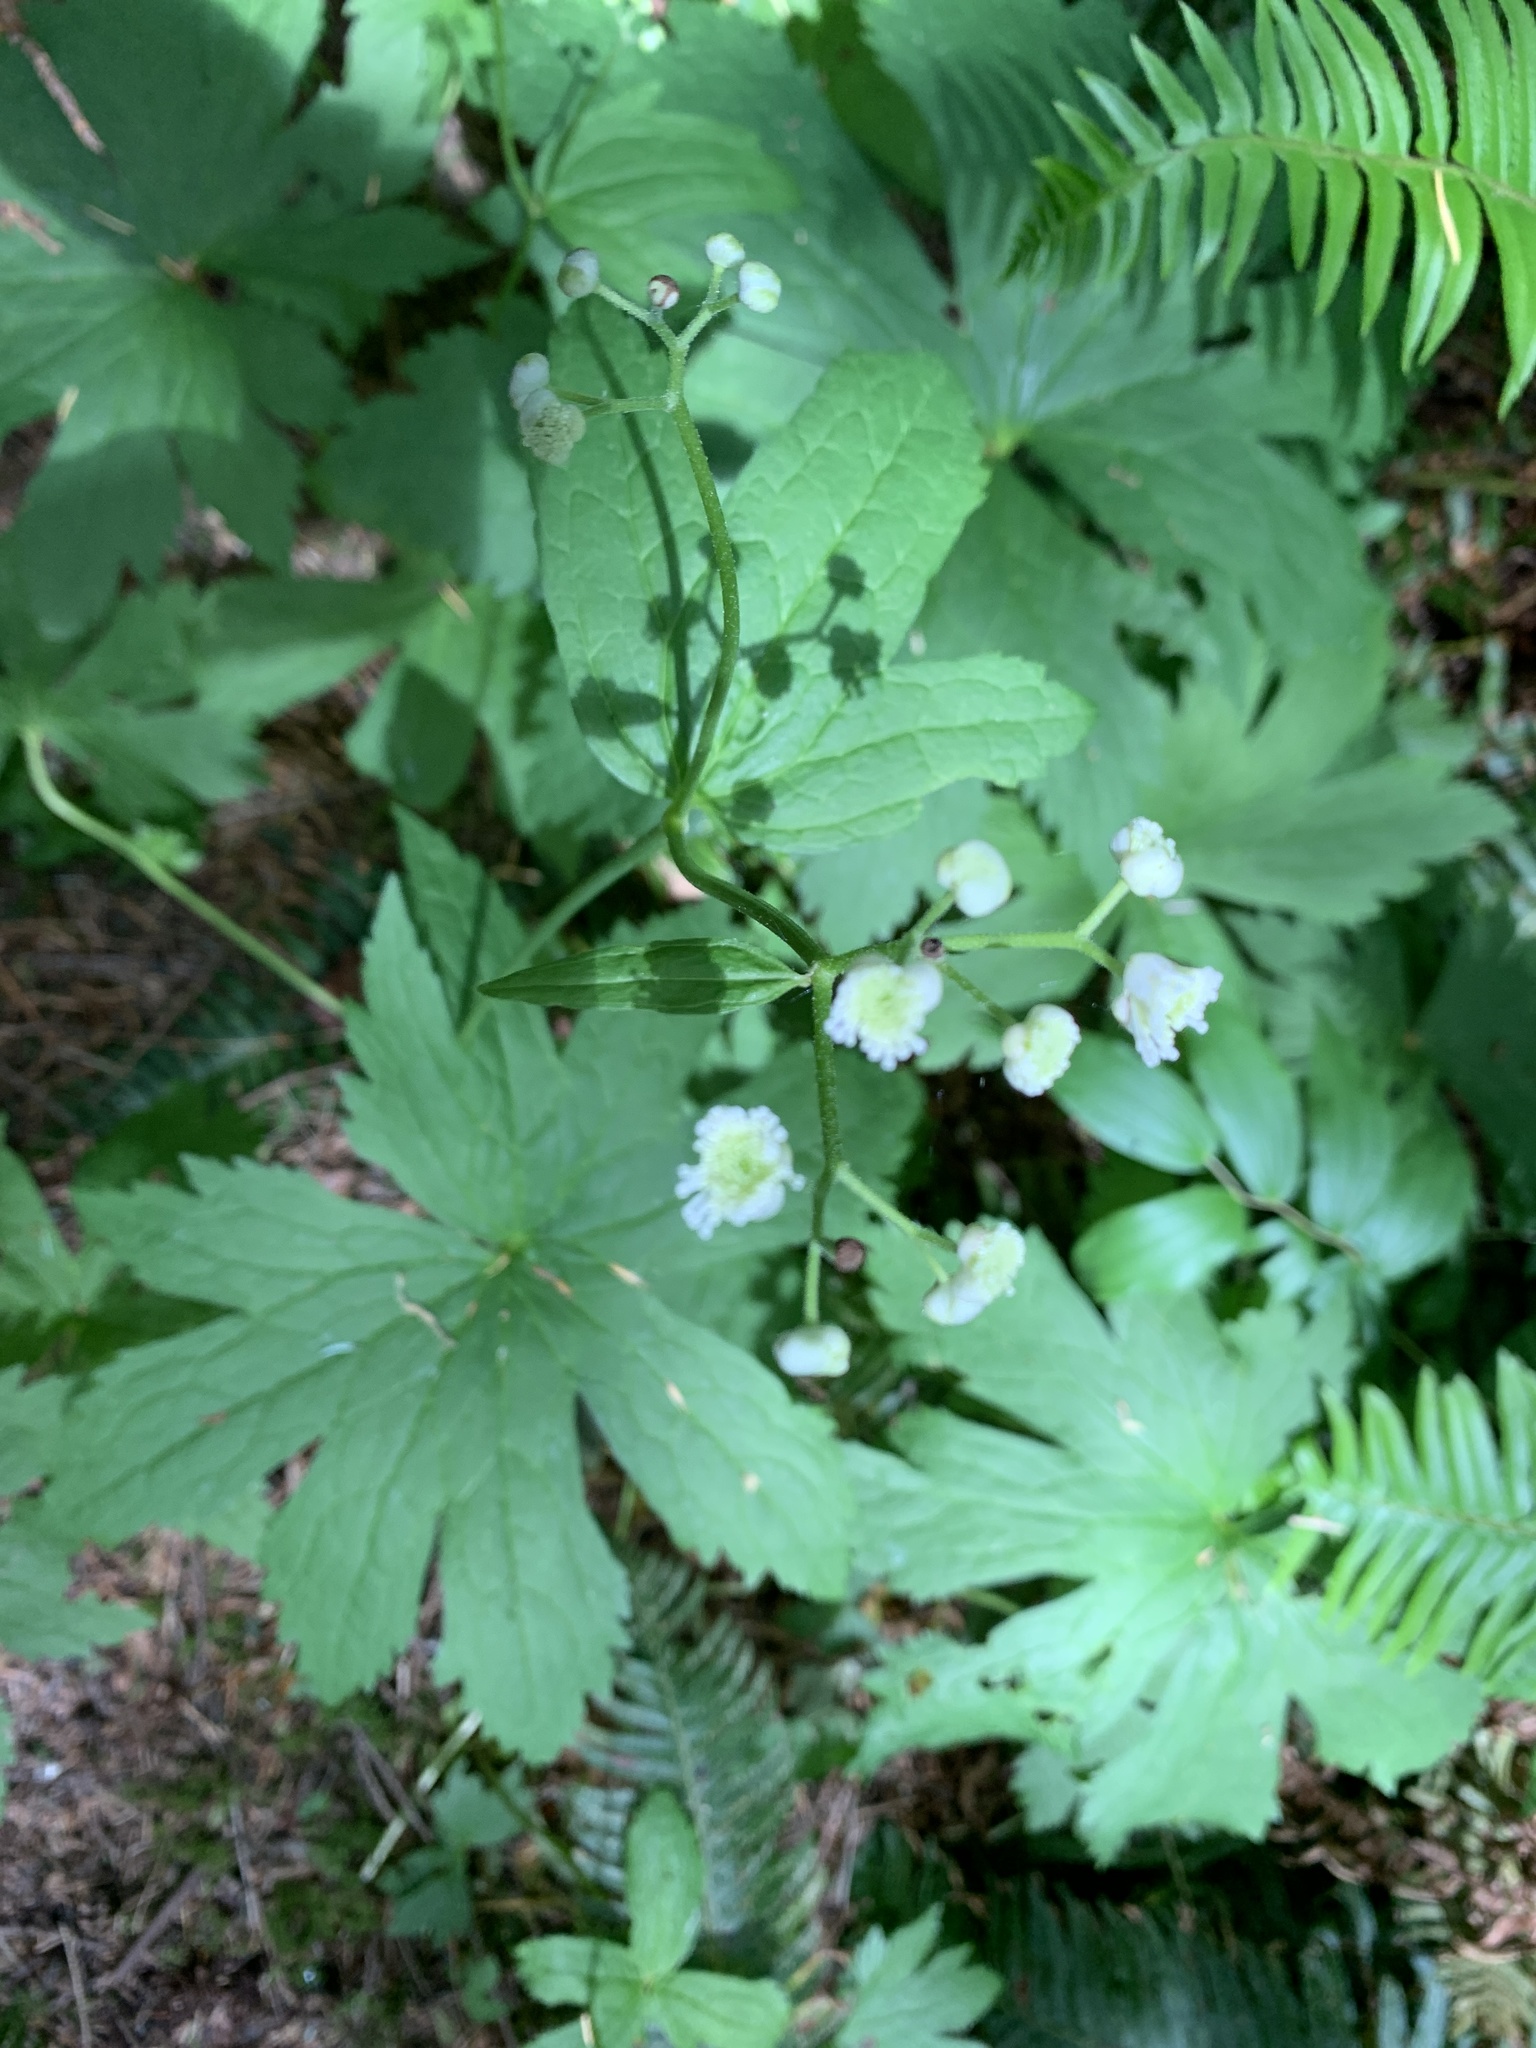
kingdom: Plantae
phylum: Tracheophyta
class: Magnoliopsida
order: Ranunculales
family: Ranunculaceae
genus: Trautvetteria
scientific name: Trautvetteria carolinensis
